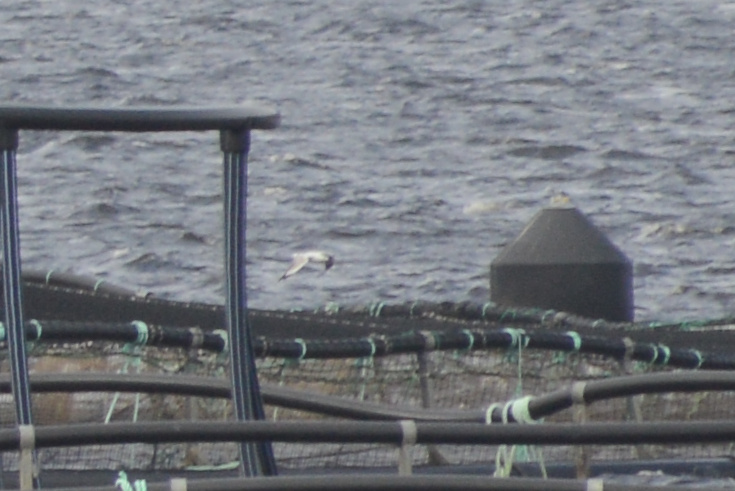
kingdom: Animalia
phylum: Chordata
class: Aves
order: Charadriiformes
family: Laridae
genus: Chroicocephalus
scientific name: Chroicocephalus novaehollandiae
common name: Silver gull
